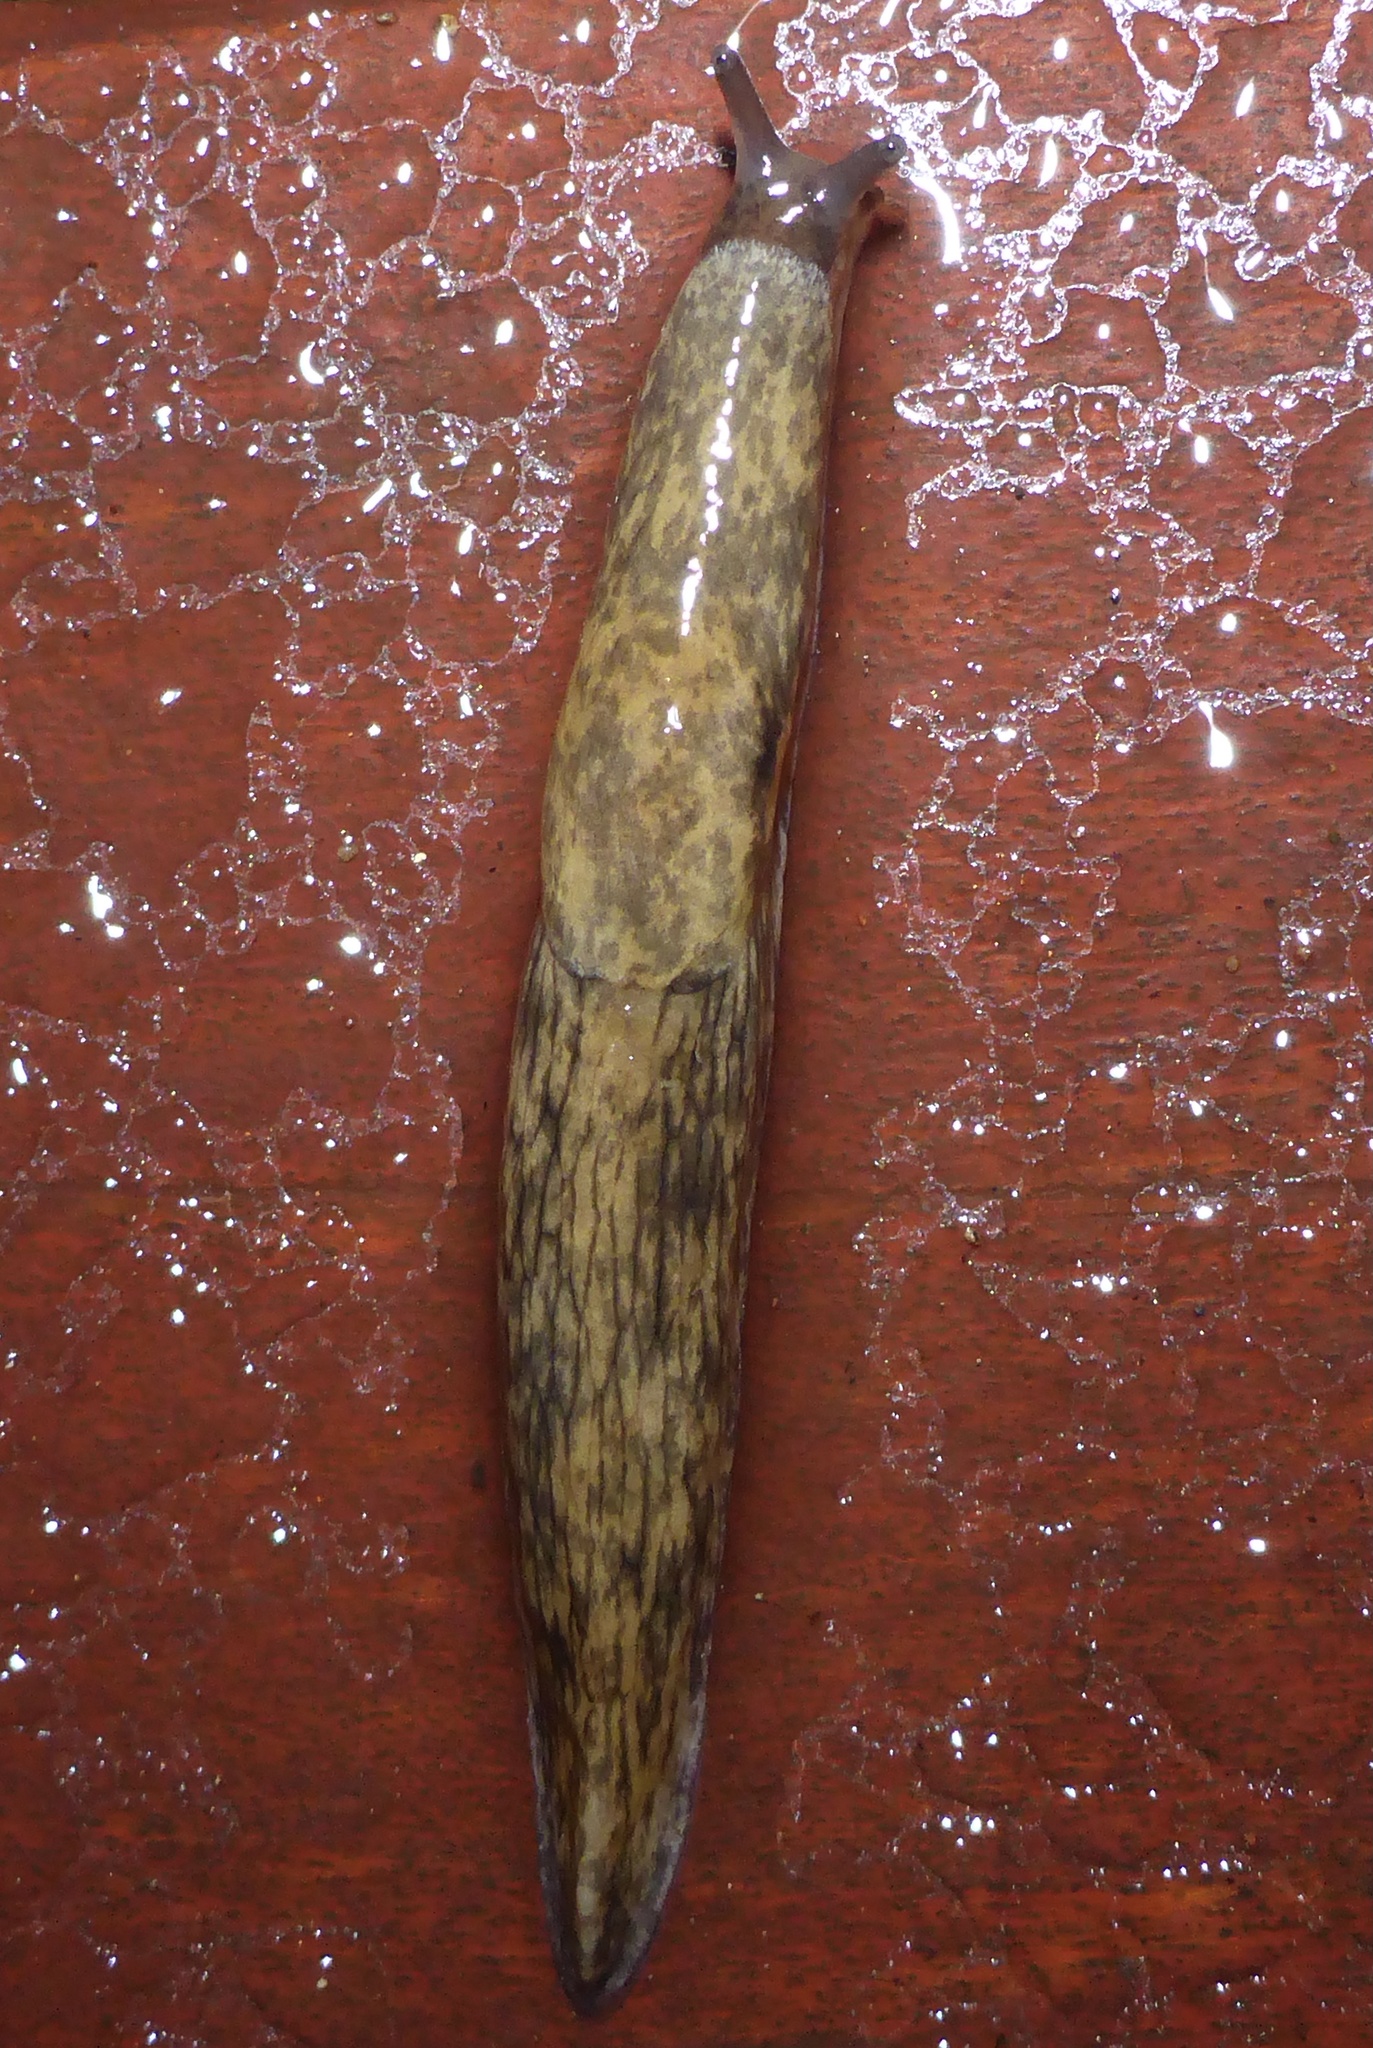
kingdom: Animalia
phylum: Mollusca
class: Gastropoda
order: Stylommatophora
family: Agriolimacidae
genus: Deroceras
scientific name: Deroceras reticulatum
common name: Gray field slug
